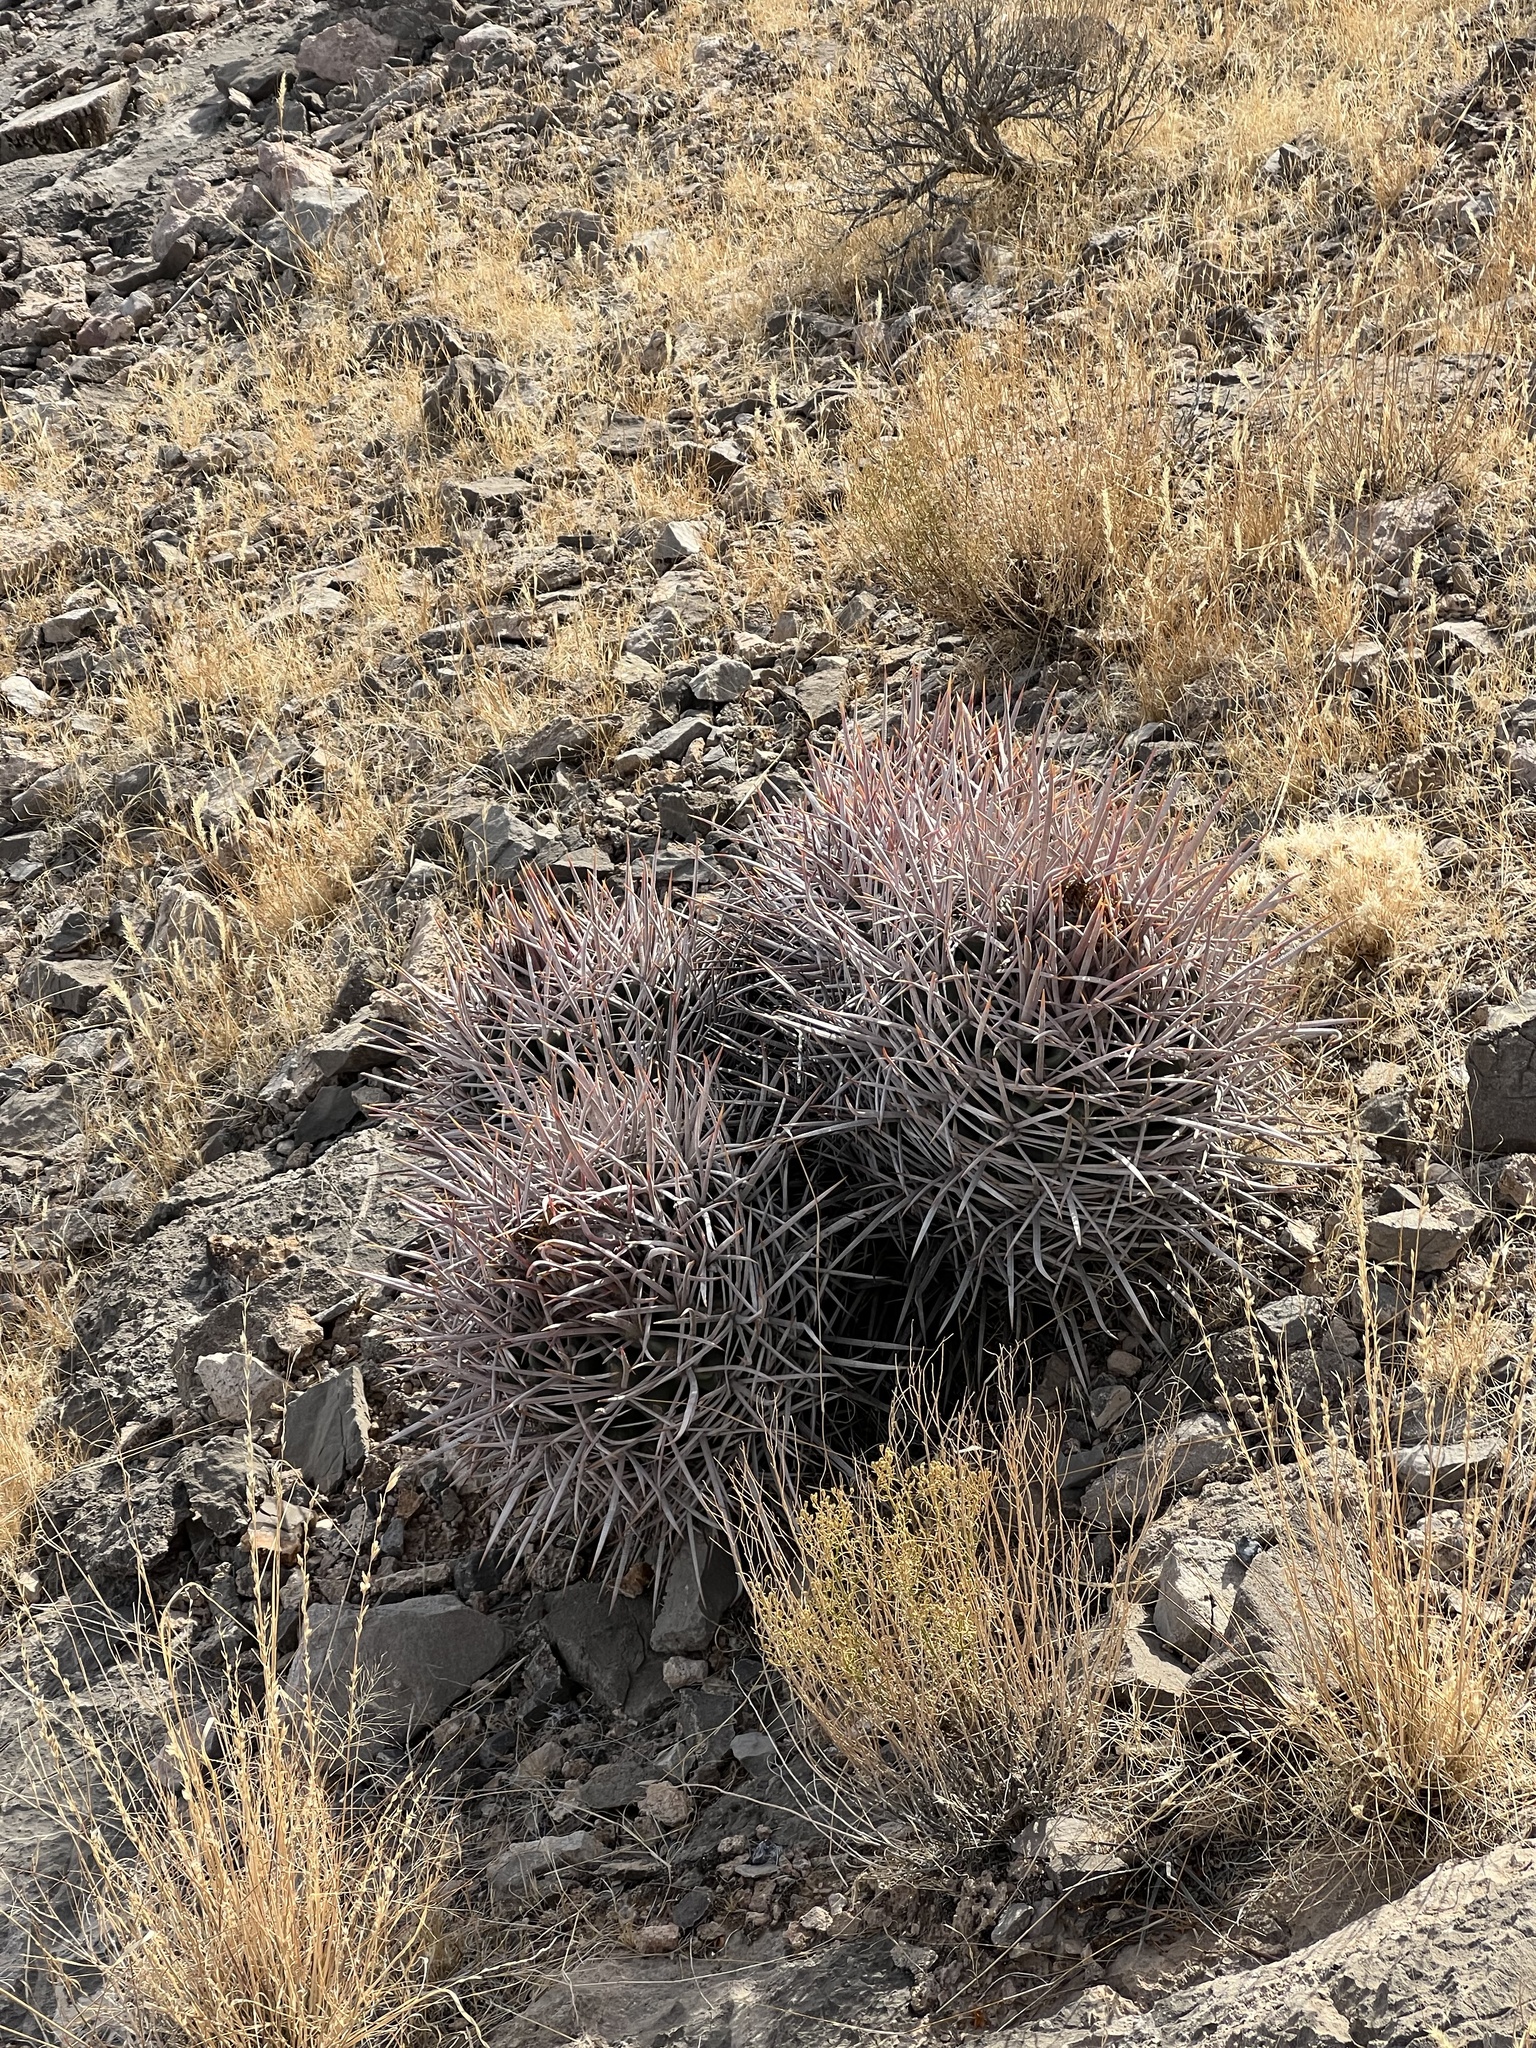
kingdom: Plantae
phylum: Tracheophyta
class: Magnoliopsida
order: Caryophyllales
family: Cactaceae
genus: Echinocactus
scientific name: Echinocactus polycephalus
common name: Cottontop cactus
